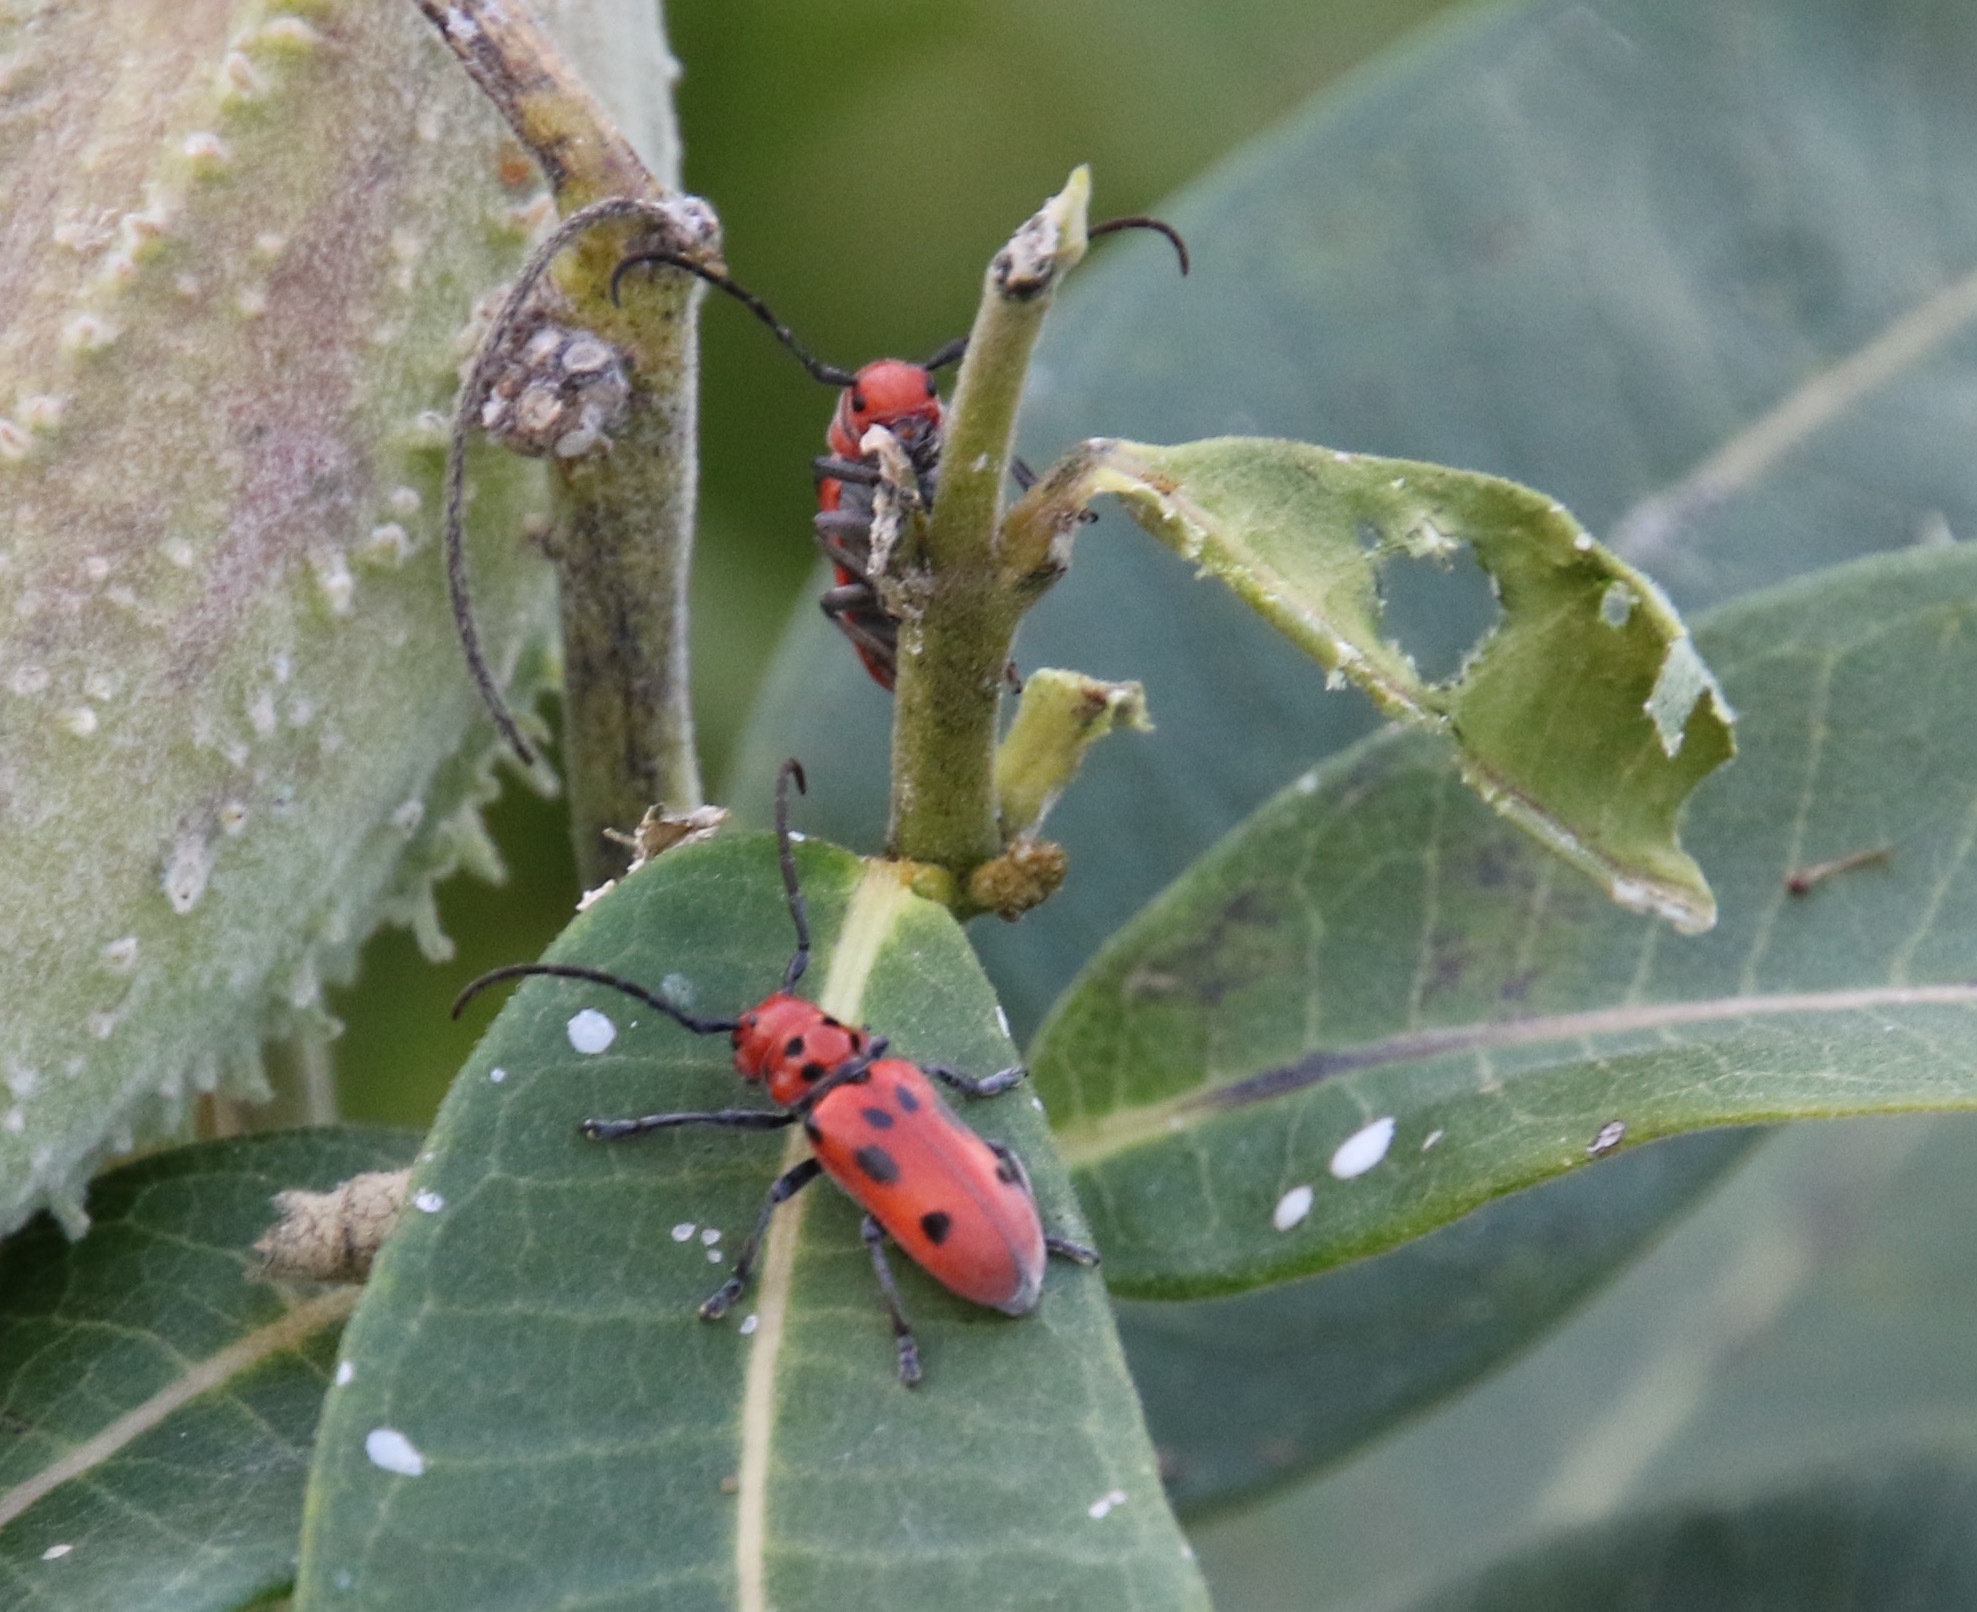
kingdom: Animalia
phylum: Arthropoda
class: Insecta
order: Coleoptera
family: Cerambycidae
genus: Tetraopes
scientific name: Tetraopes tetrophthalmus
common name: Red milkweed beetle
